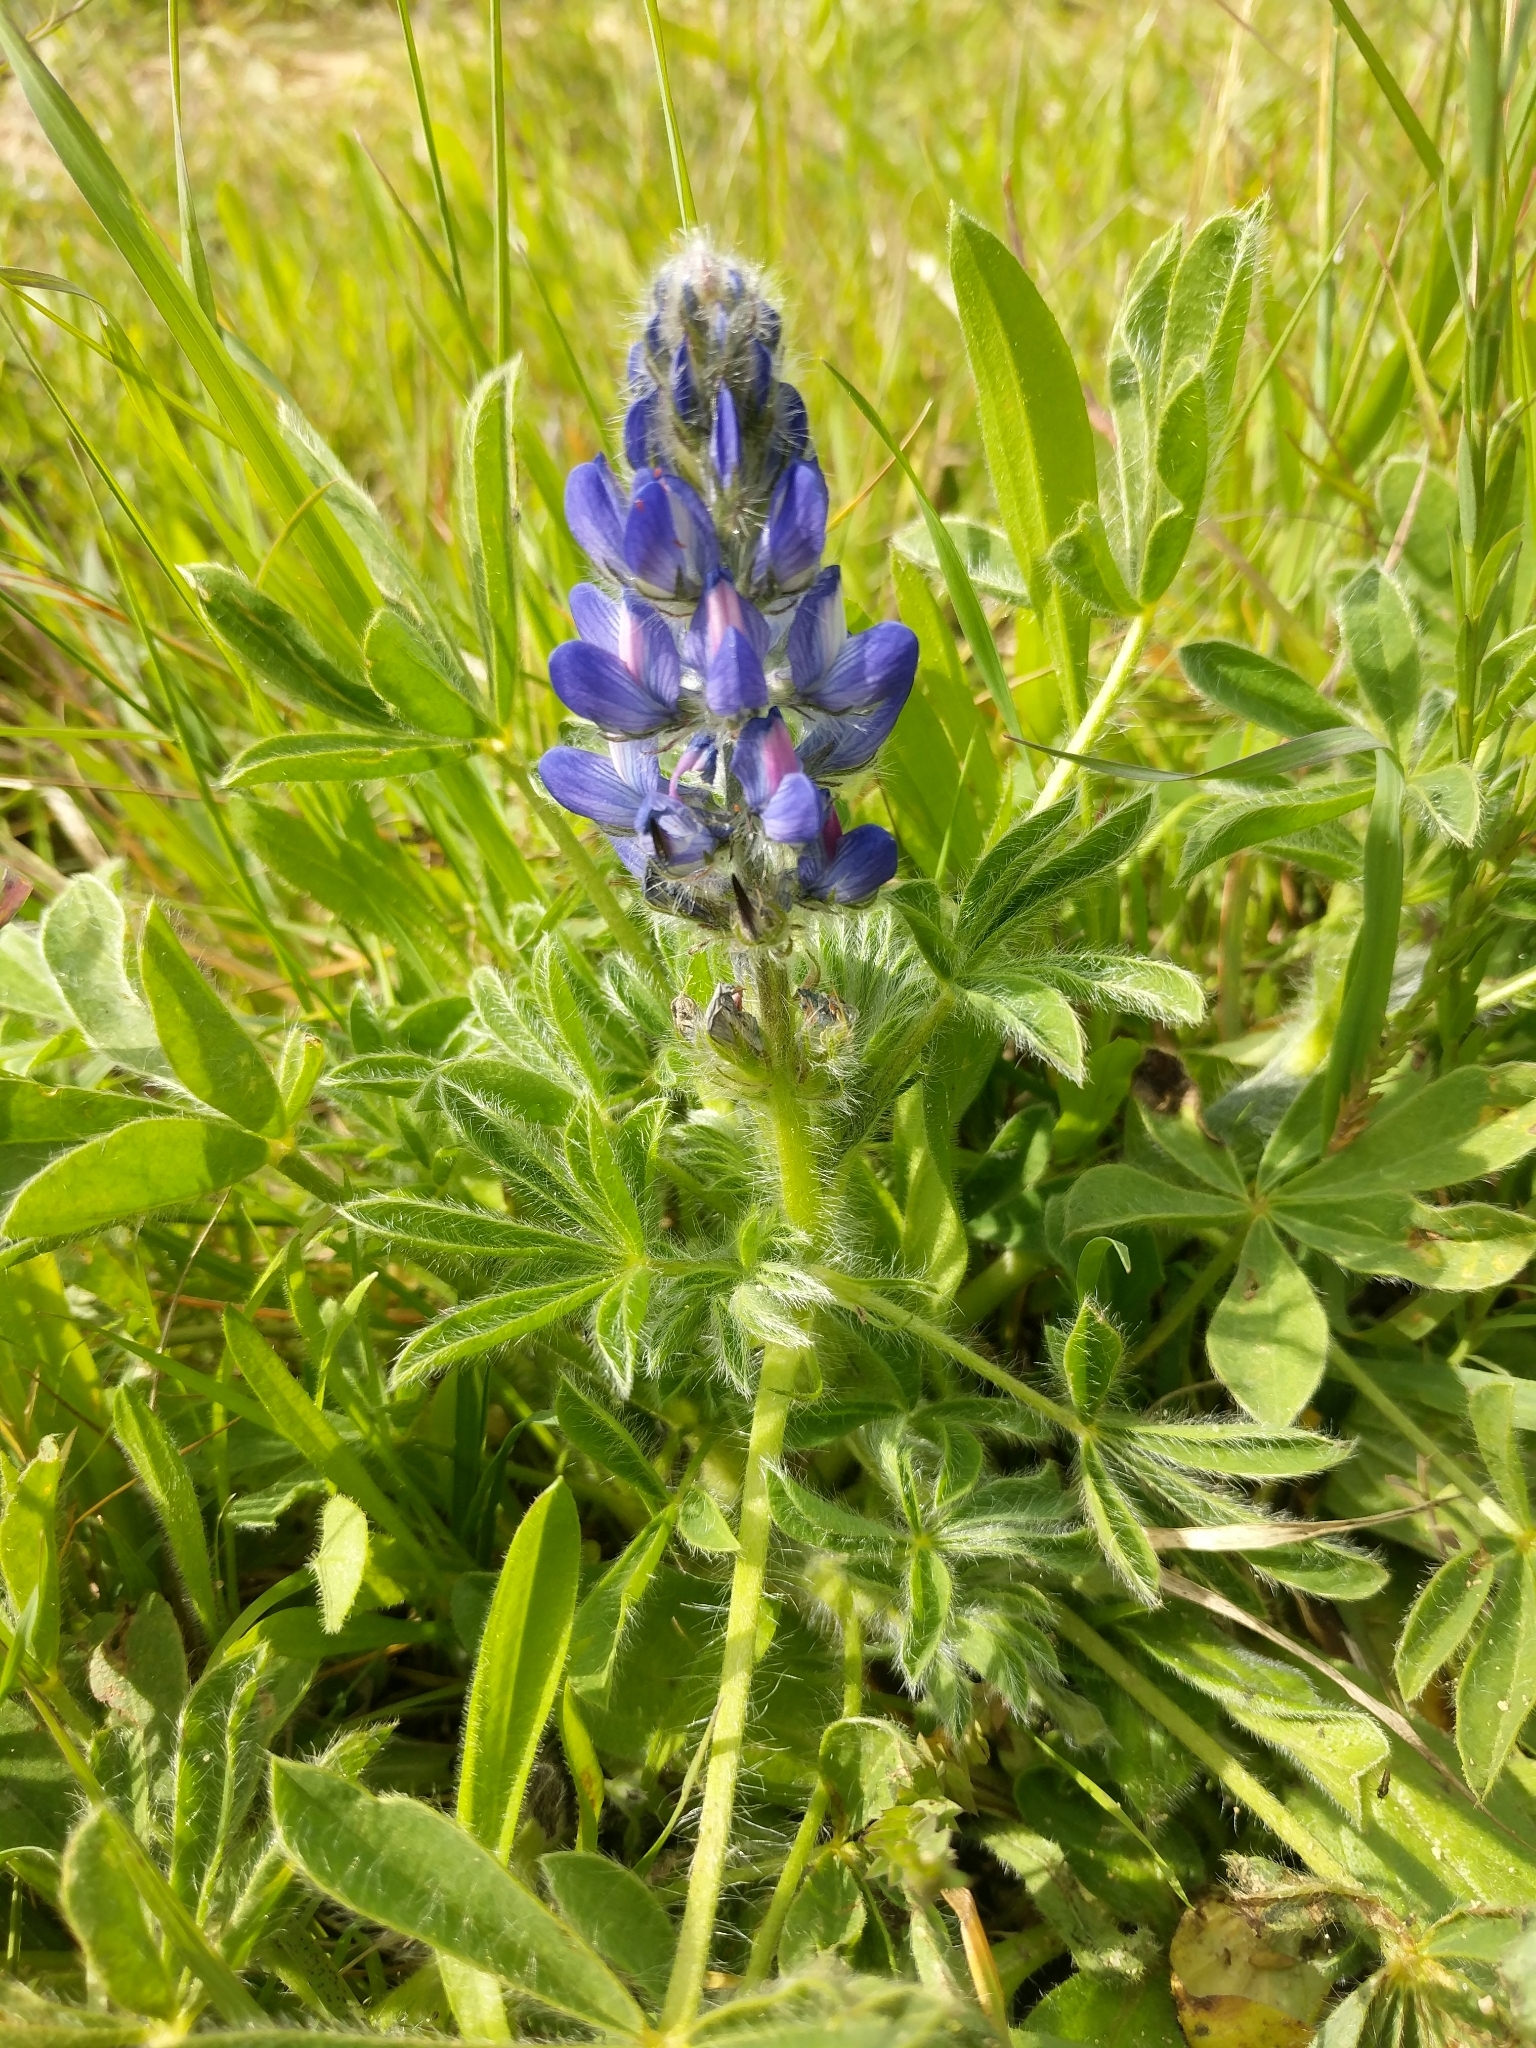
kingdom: Plantae
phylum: Tracheophyta
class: Magnoliopsida
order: Fabales
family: Fabaceae
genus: Lupinus
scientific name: Lupinus gussoneanus
